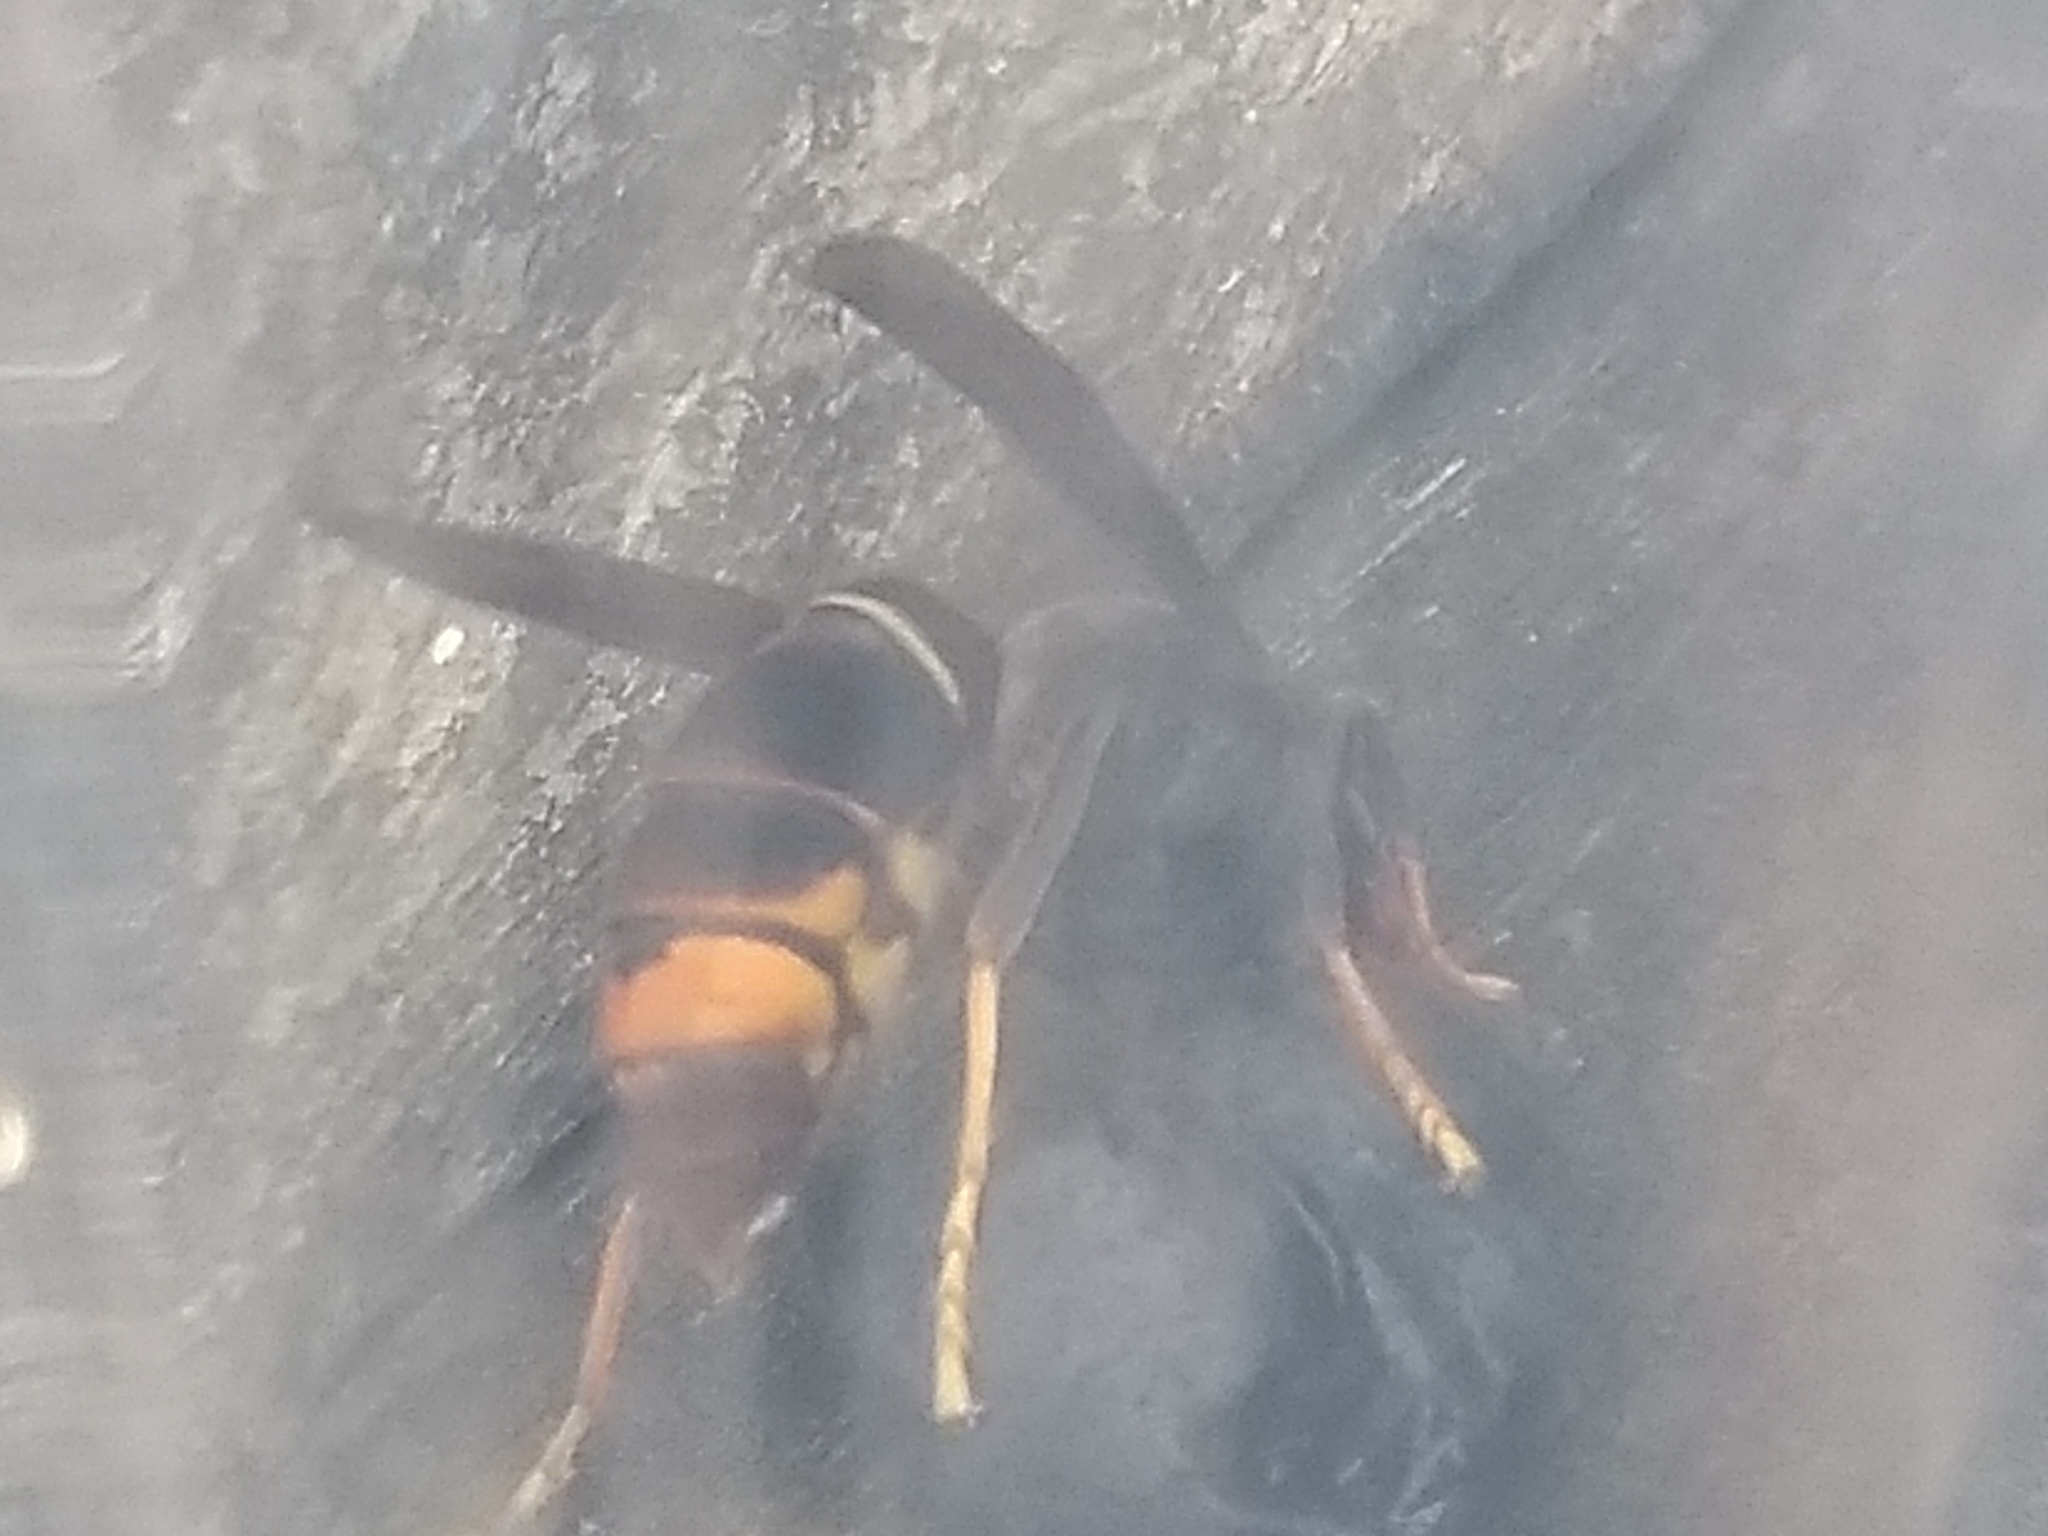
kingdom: Animalia
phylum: Arthropoda
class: Insecta
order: Hymenoptera
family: Vespidae
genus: Vespa
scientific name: Vespa velutina
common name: Asian hornet
